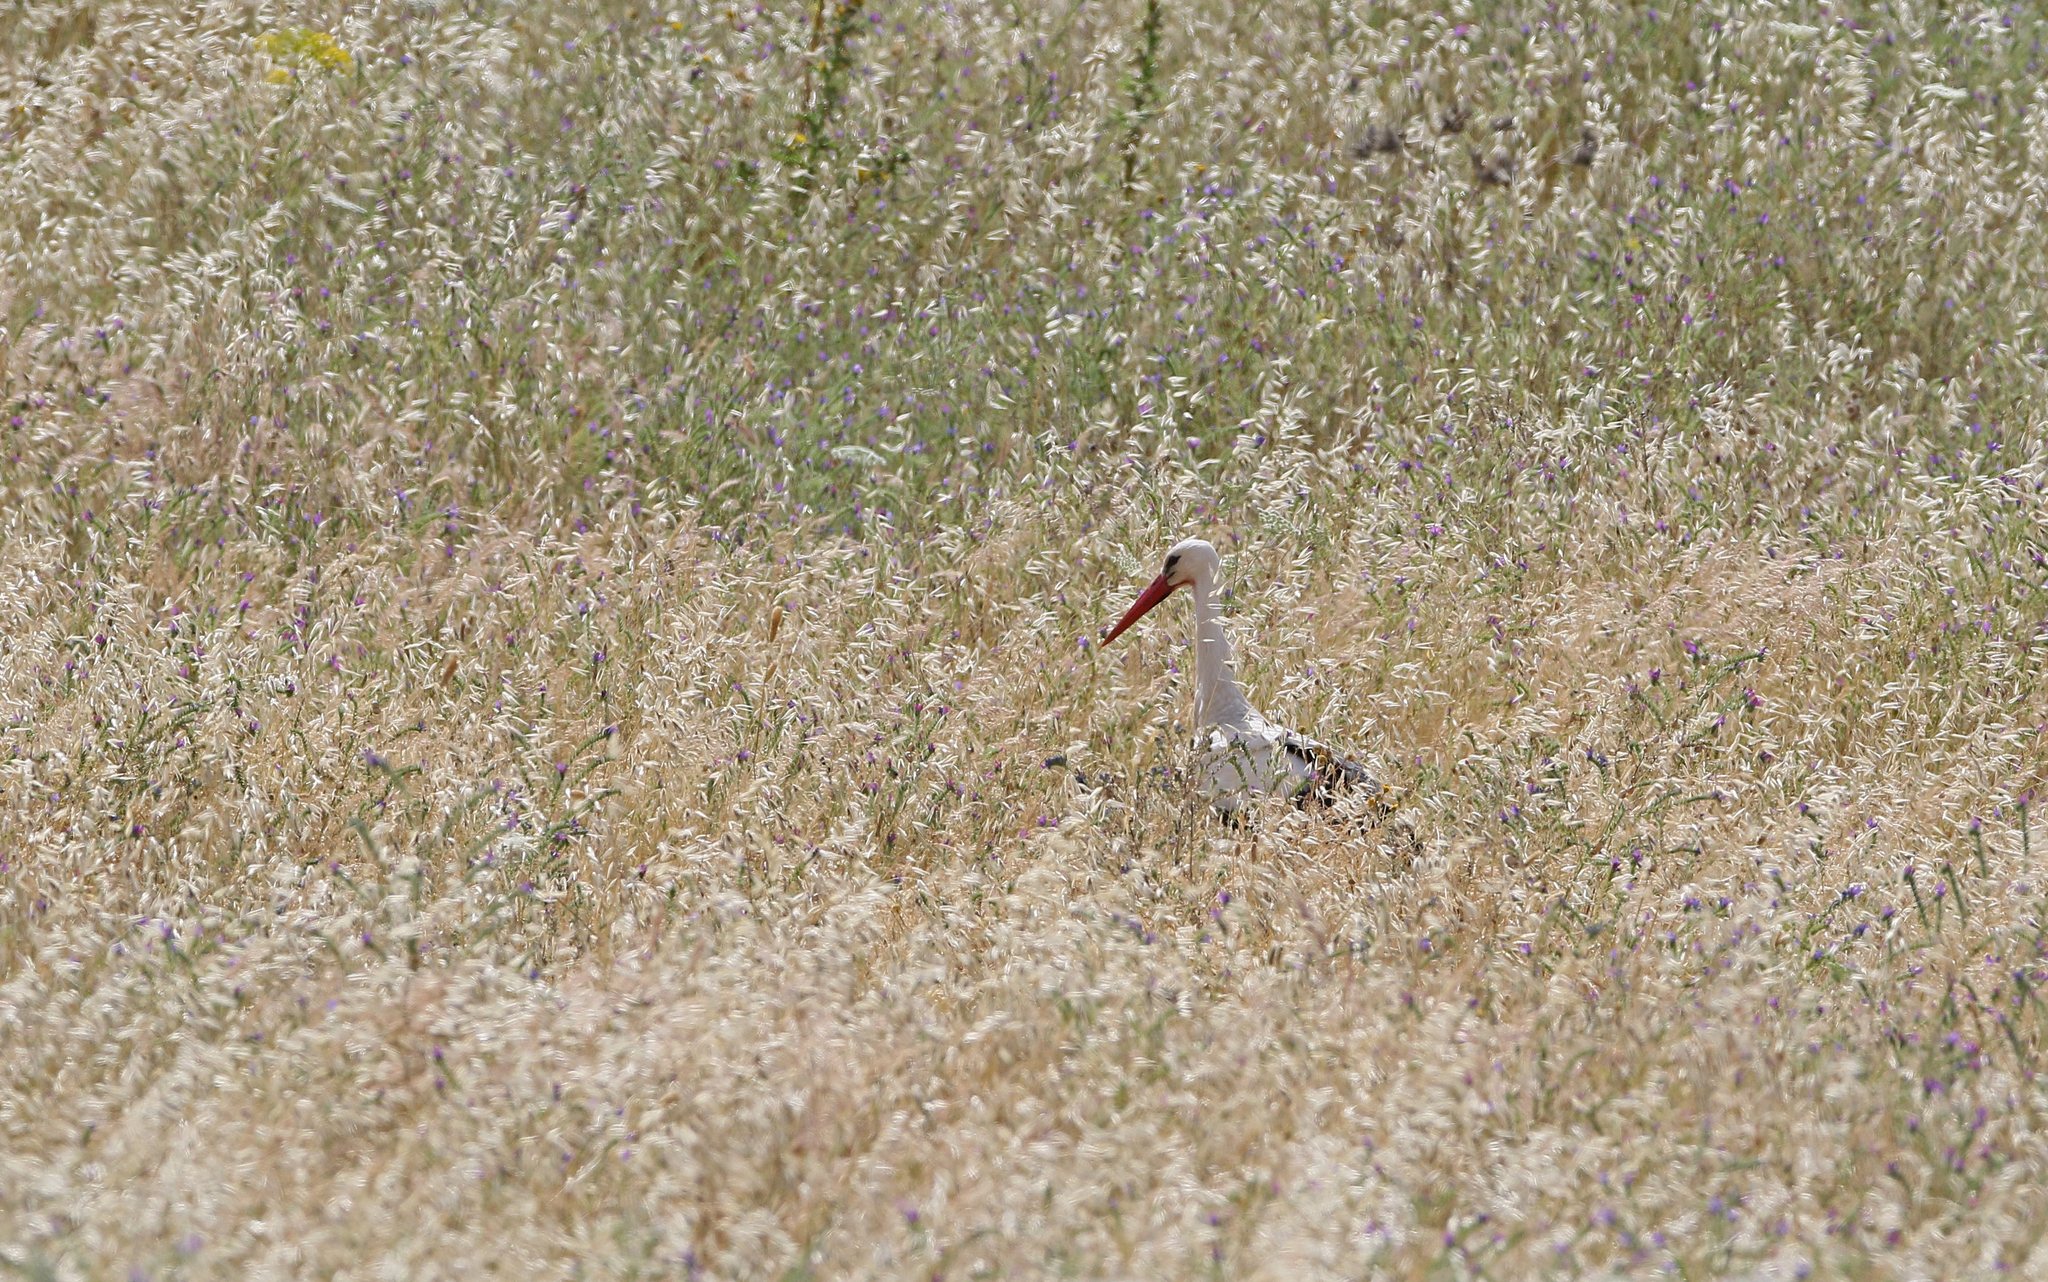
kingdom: Animalia
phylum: Chordata
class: Aves
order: Ciconiiformes
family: Ciconiidae
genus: Ciconia
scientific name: Ciconia ciconia
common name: White stork
